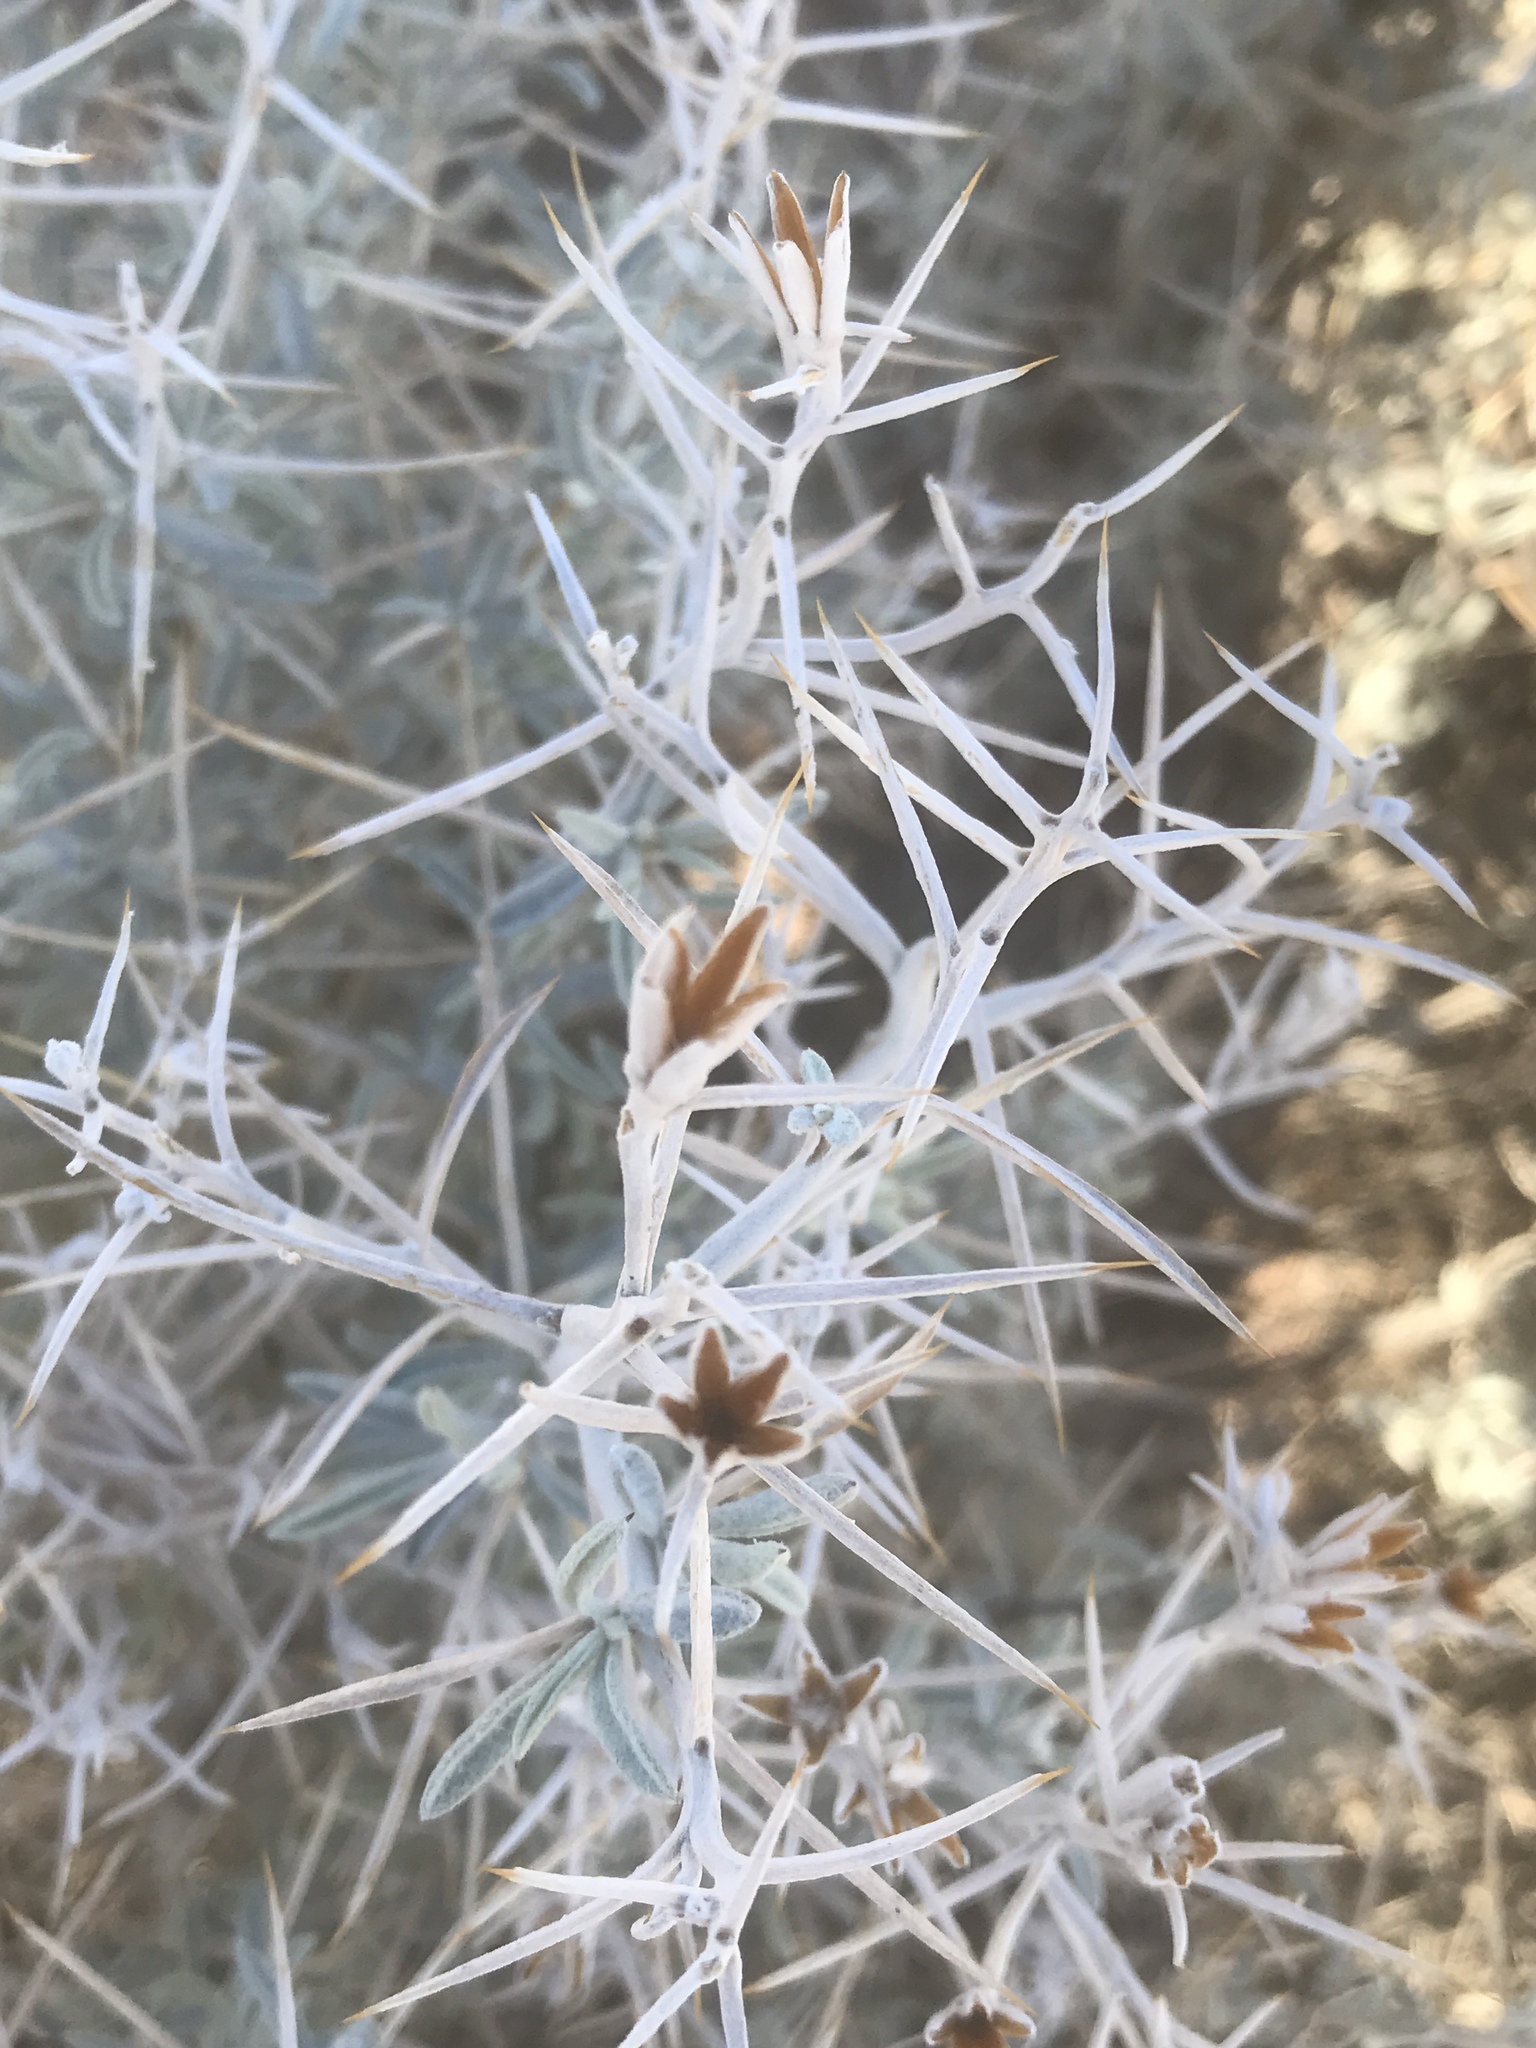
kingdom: Plantae
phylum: Tracheophyta
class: Magnoliopsida
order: Asterales
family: Asteraceae
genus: Tetradymia
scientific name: Tetradymia stenolepis
